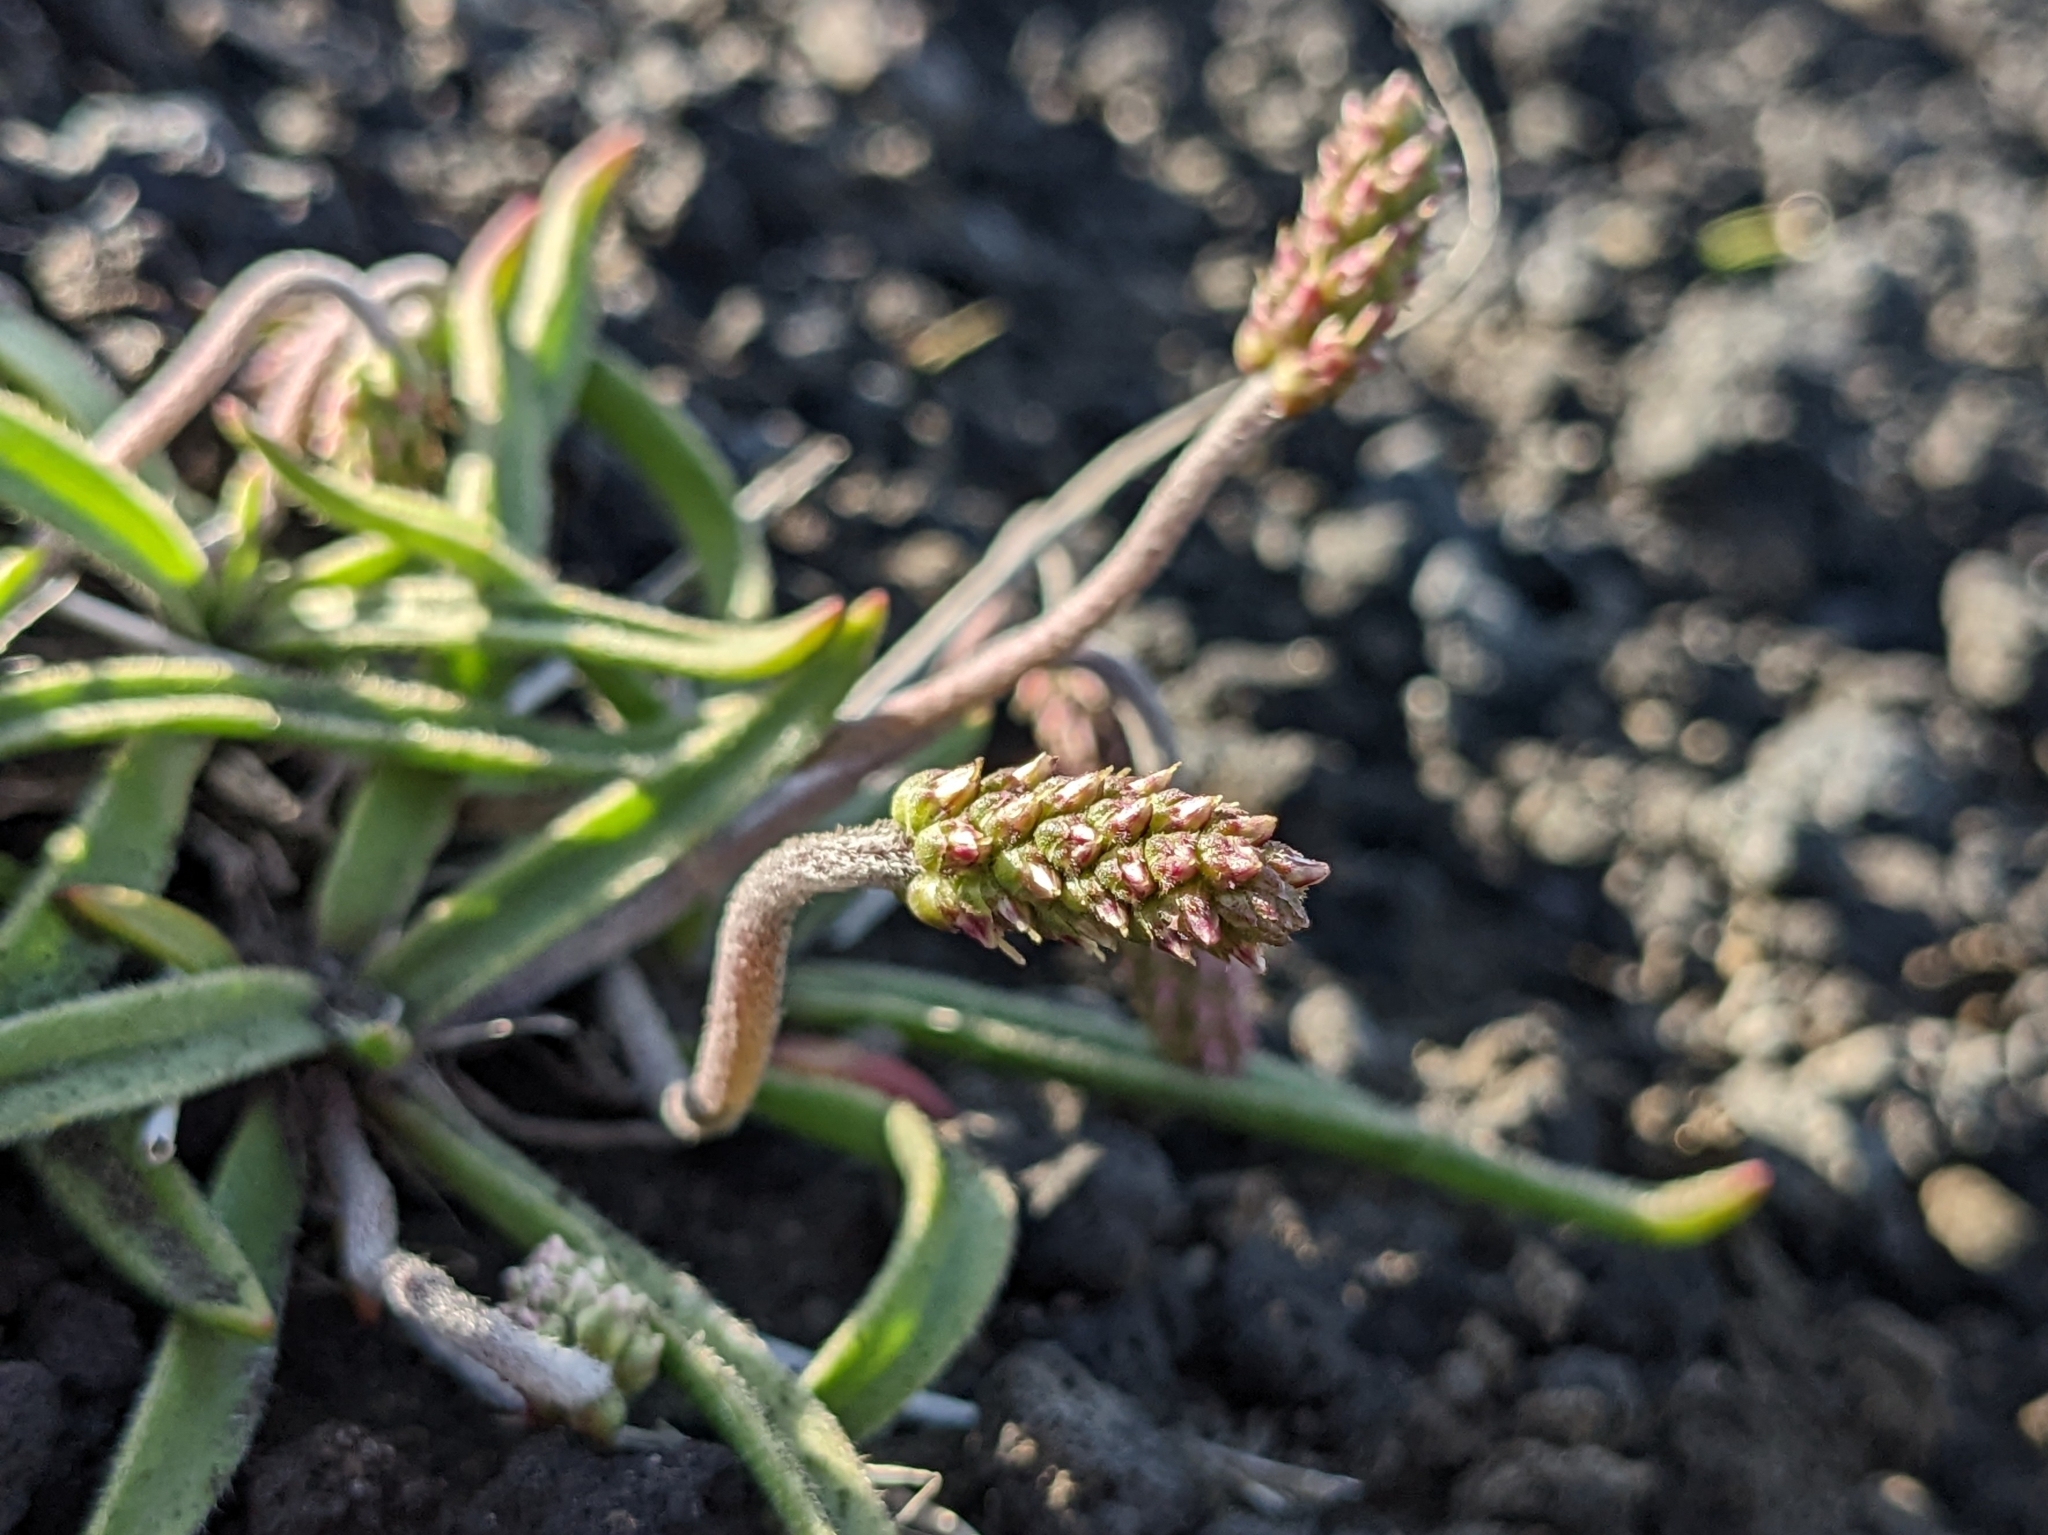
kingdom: Plantae
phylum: Tracheophyta
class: Magnoliopsida
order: Lamiales
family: Plantaginaceae
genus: Plantago
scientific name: Plantago maritima
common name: Sea plantain
